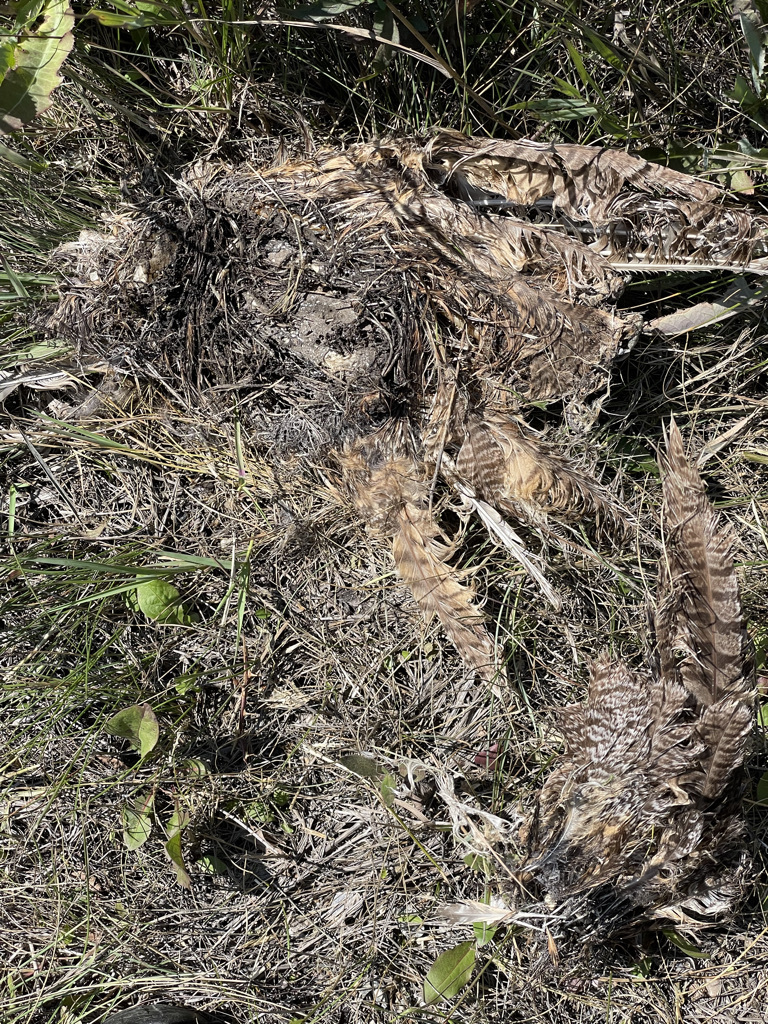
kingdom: Animalia
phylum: Chordata
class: Aves
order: Strigiformes
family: Strigidae
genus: Asio
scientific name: Asio otus
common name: Long-eared owl
